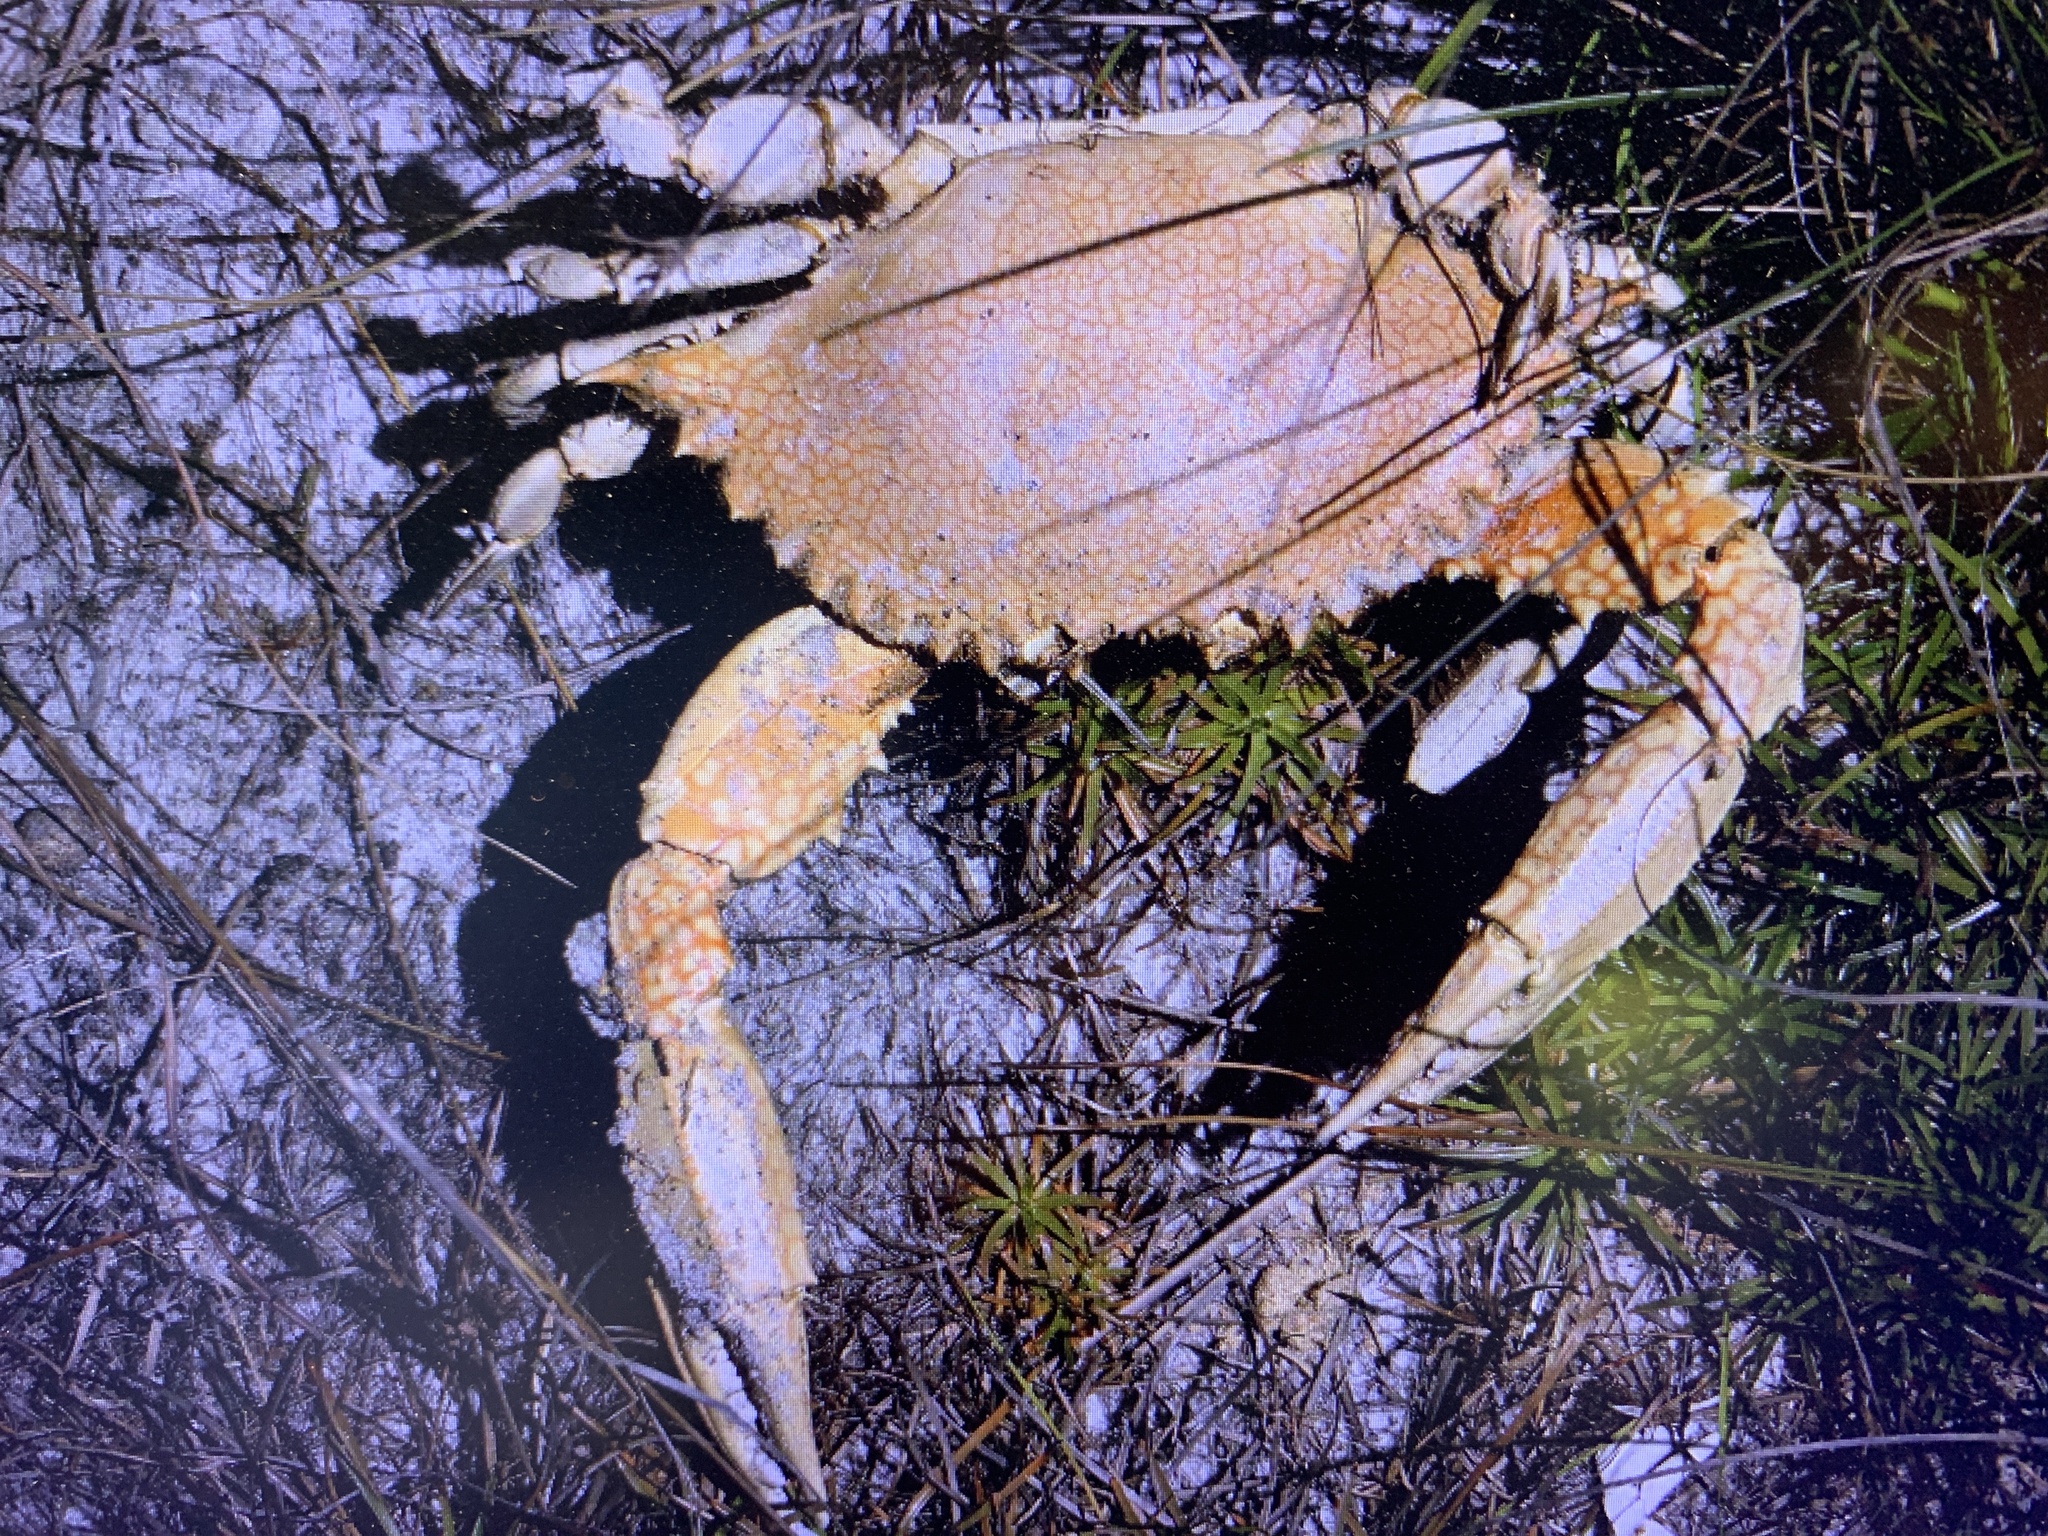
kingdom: Animalia
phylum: Arthropoda
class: Malacostraca
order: Decapoda
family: Portunidae
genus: Arenaeus
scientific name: Arenaeus cribrarius
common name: Speckled crab
